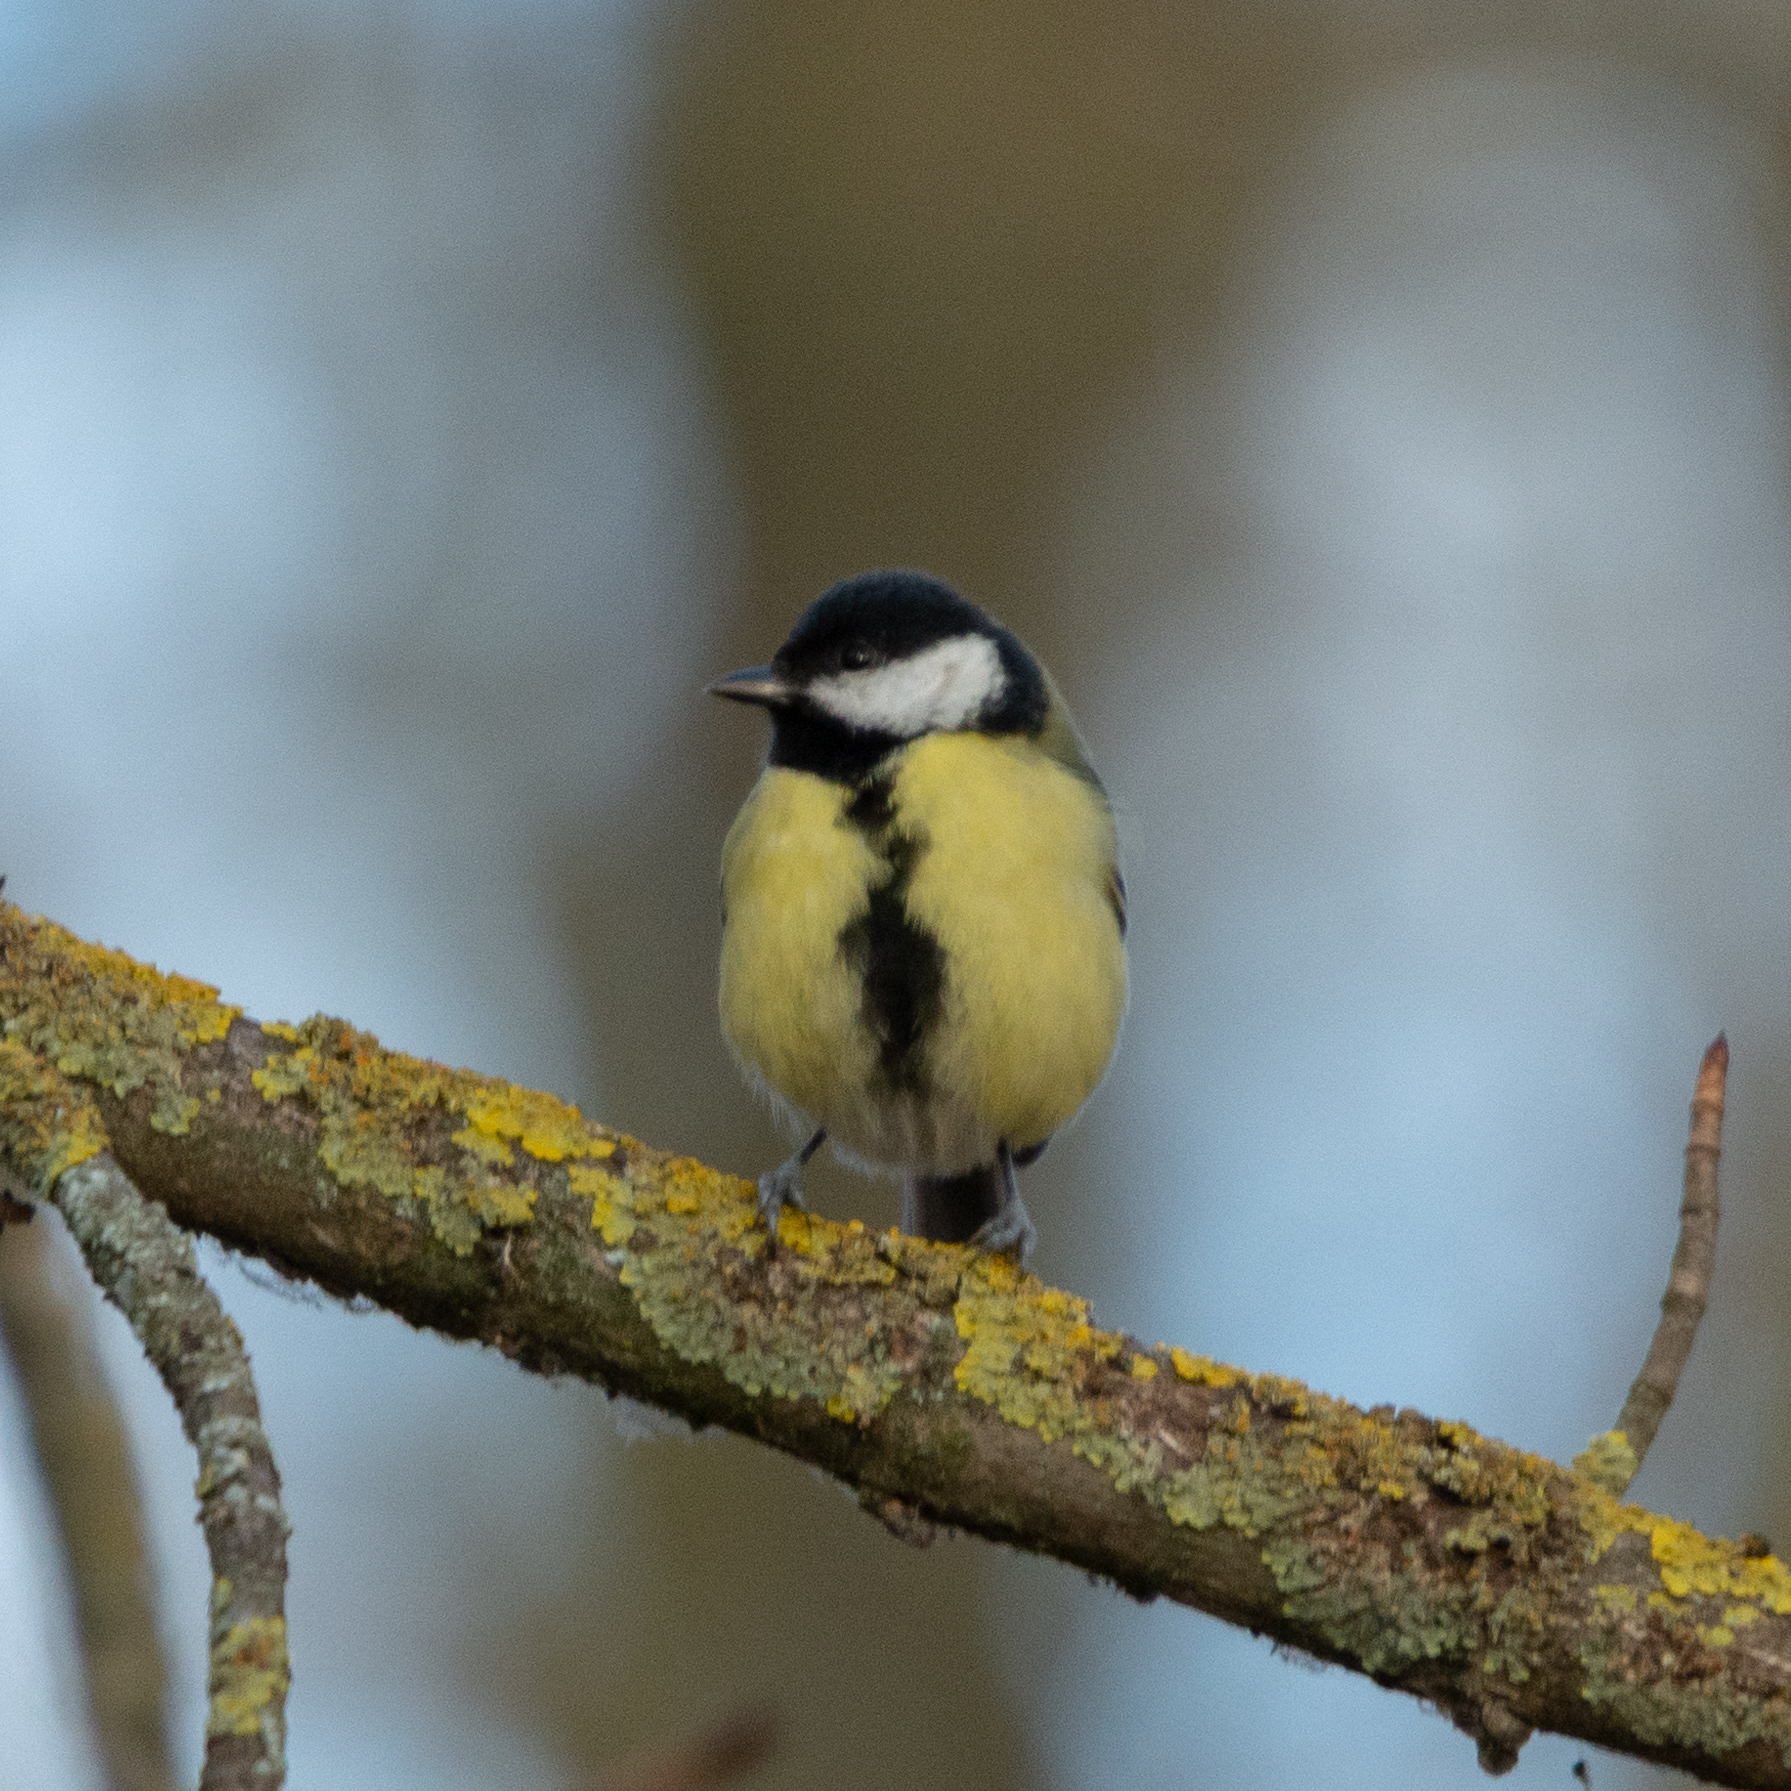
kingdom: Animalia
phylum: Chordata
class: Aves
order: Passeriformes
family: Paridae
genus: Parus
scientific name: Parus major
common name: Great tit
